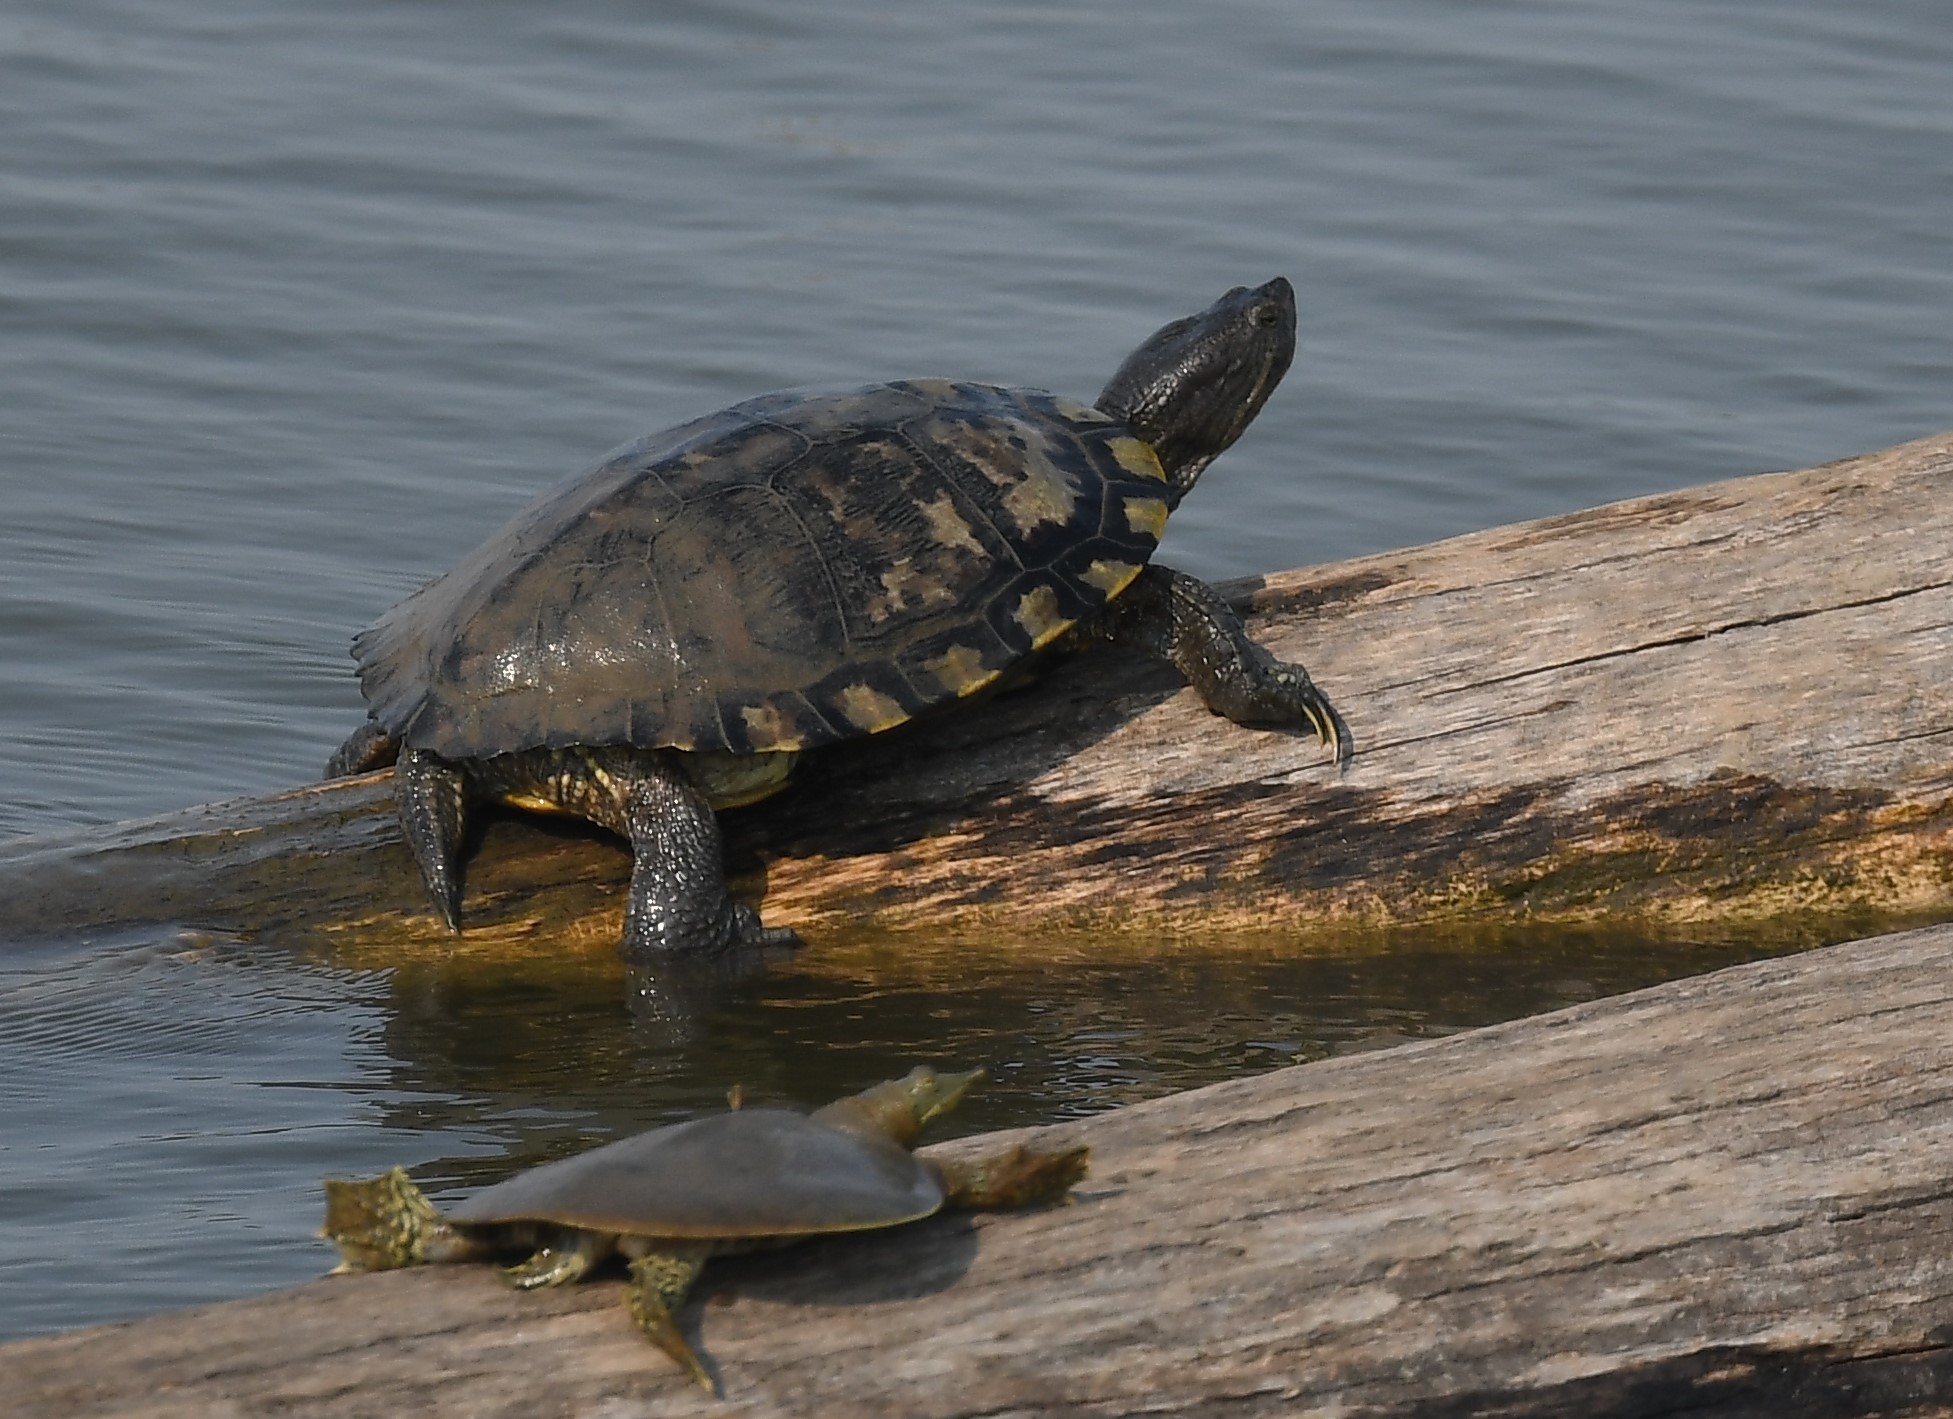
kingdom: Animalia
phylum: Chordata
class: Testudines
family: Emydidae
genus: Trachemys
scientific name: Trachemys scripta
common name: Slider
